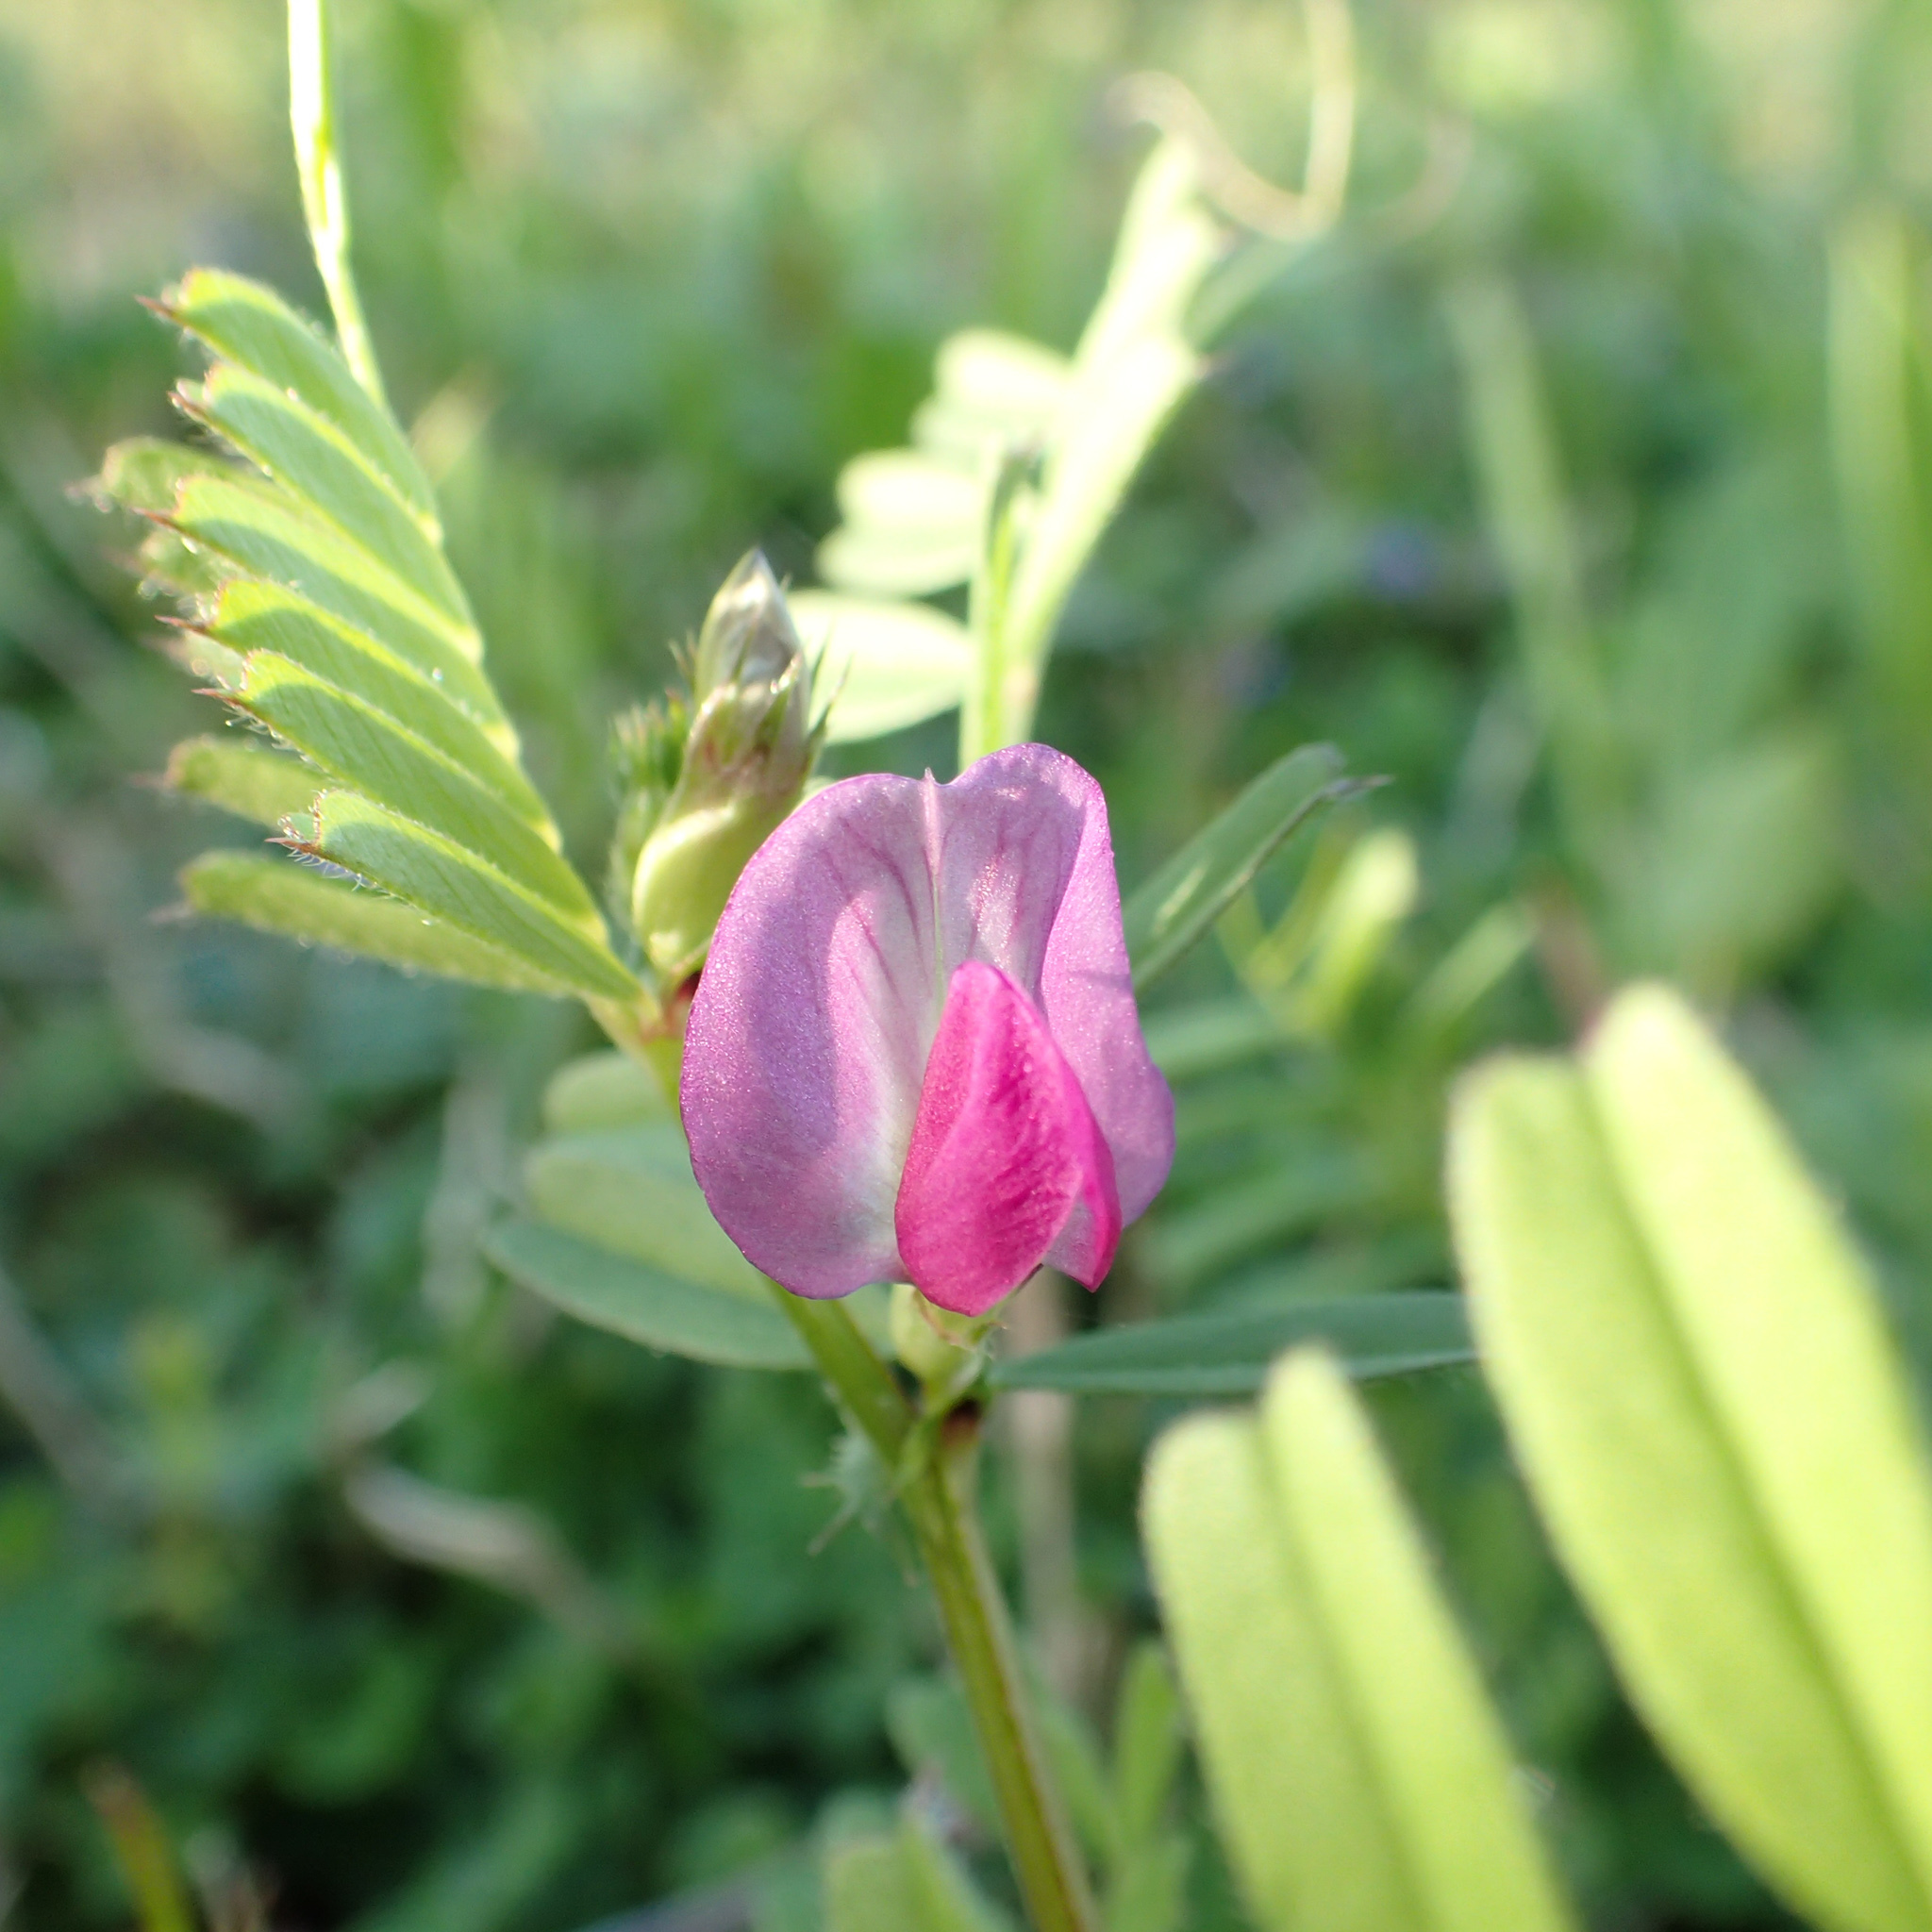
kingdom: Plantae
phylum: Tracheophyta
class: Magnoliopsida
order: Fabales
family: Fabaceae
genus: Vicia
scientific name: Vicia sativa
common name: Garden vetch
